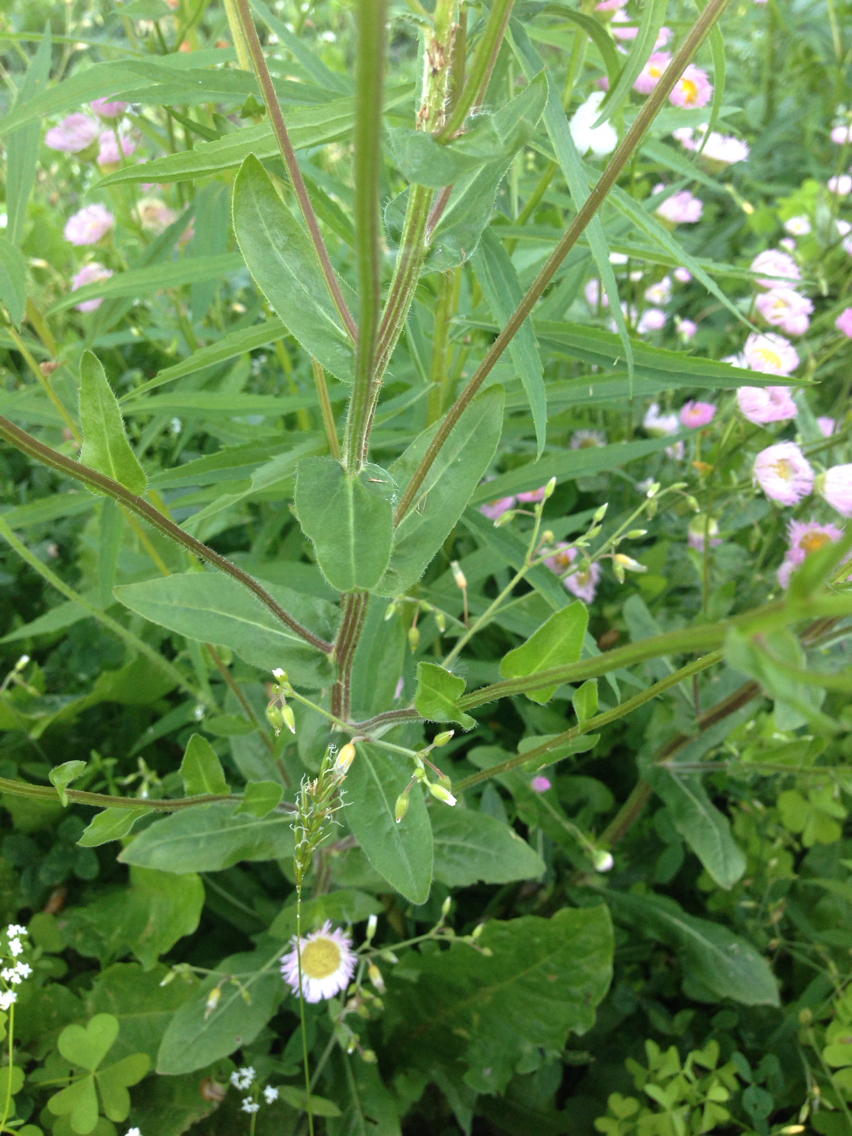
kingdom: Plantae
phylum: Tracheophyta
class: Magnoliopsida
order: Asterales
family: Asteraceae
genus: Erigeron
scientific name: Erigeron philadelphicus
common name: Robin's-plantain
